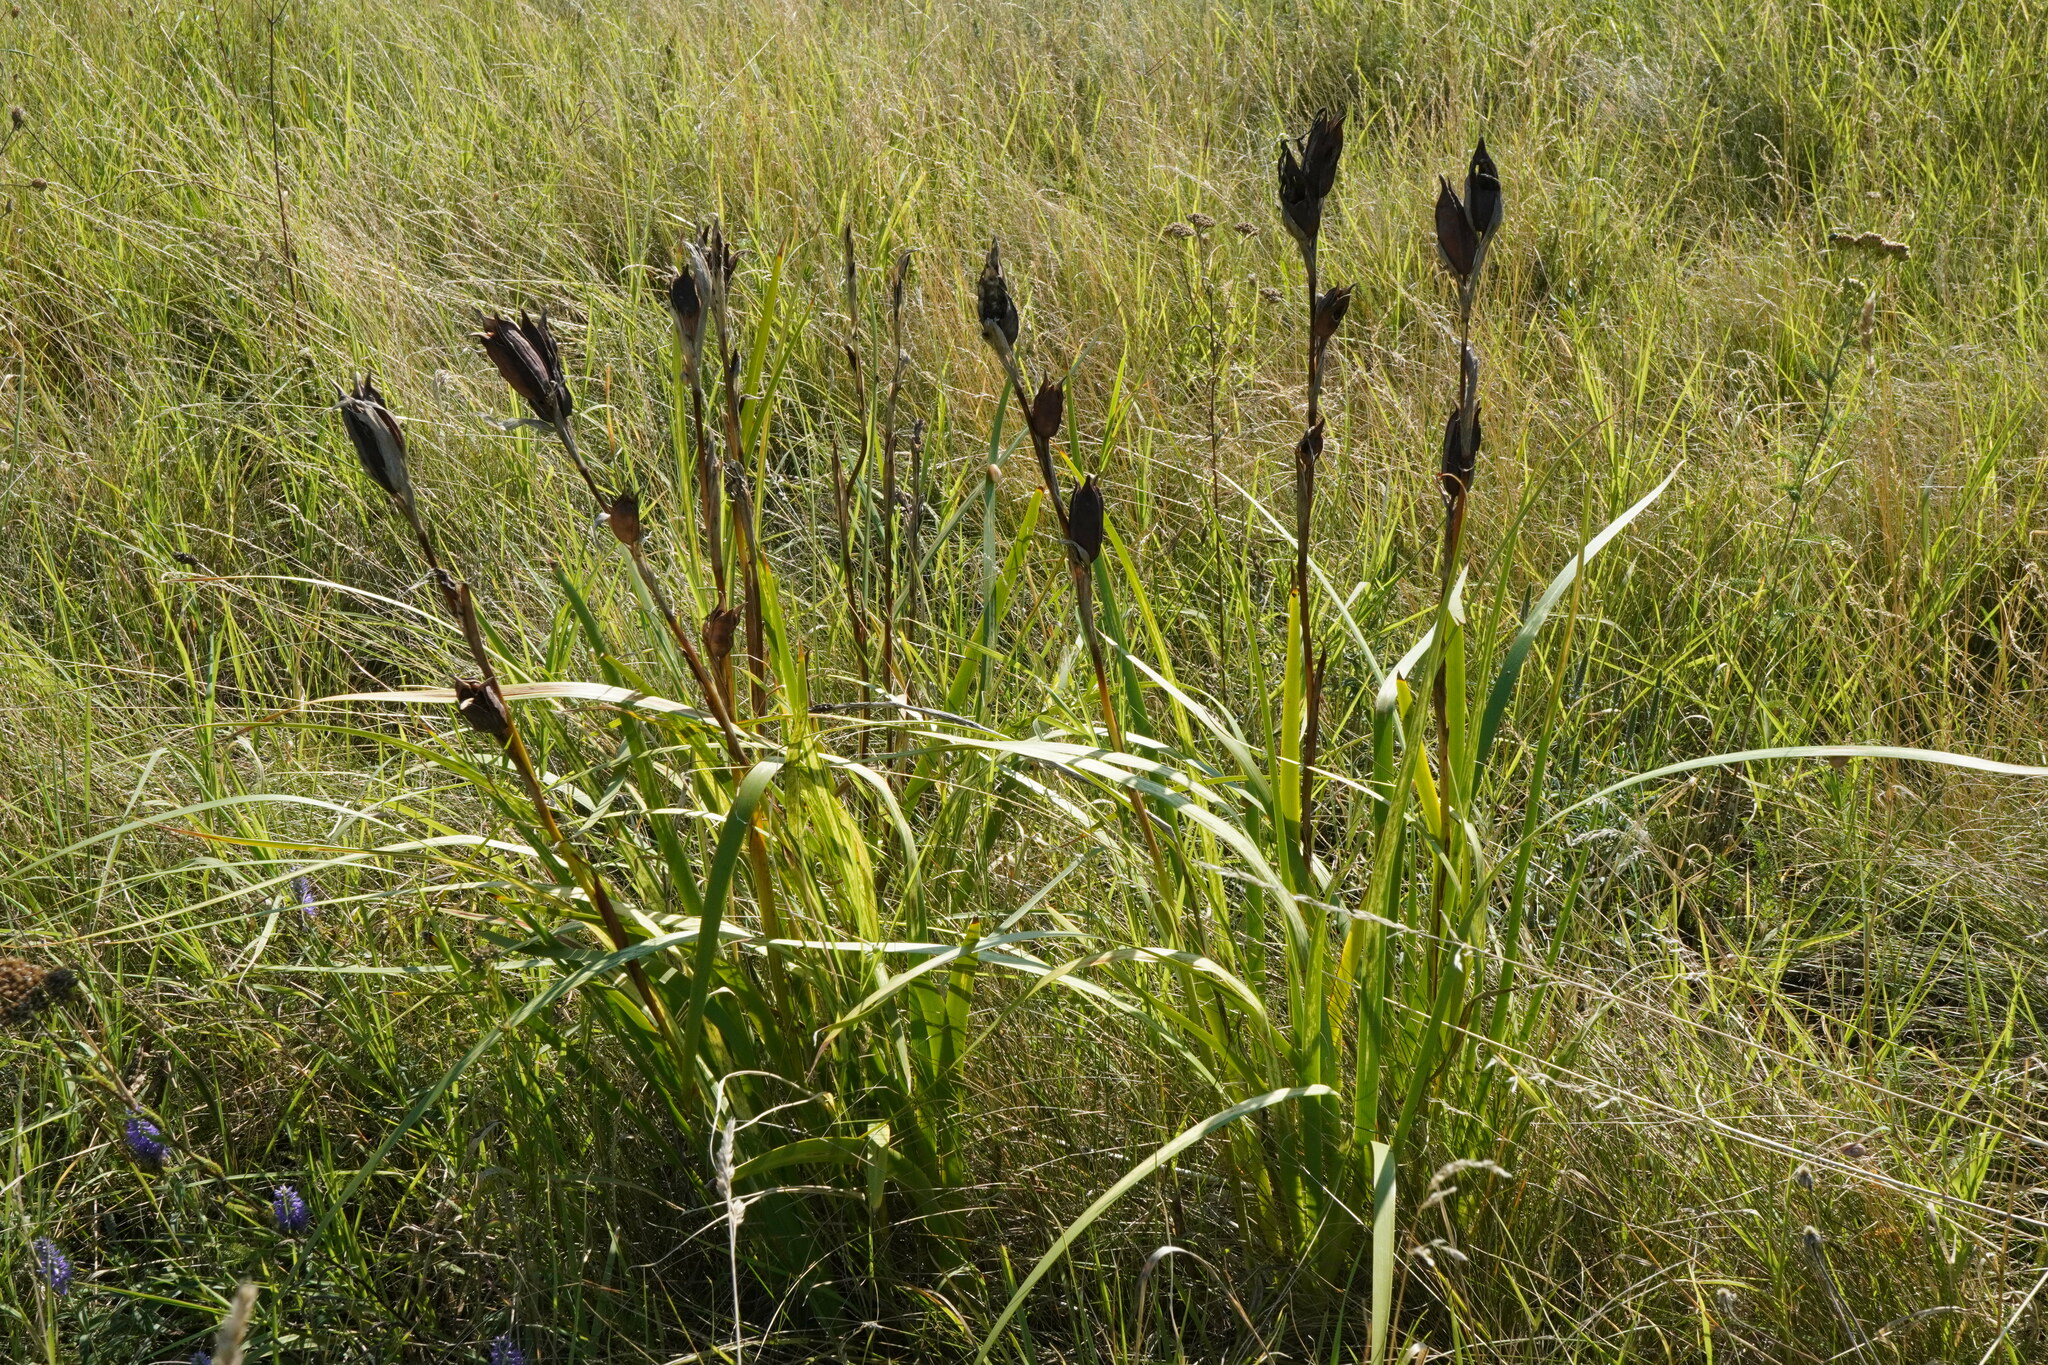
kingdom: Plantae
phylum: Tracheophyta
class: Liliopsida
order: Asparagales
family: Iridaceae
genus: Iris
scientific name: Iris spuria
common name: Blue iris
